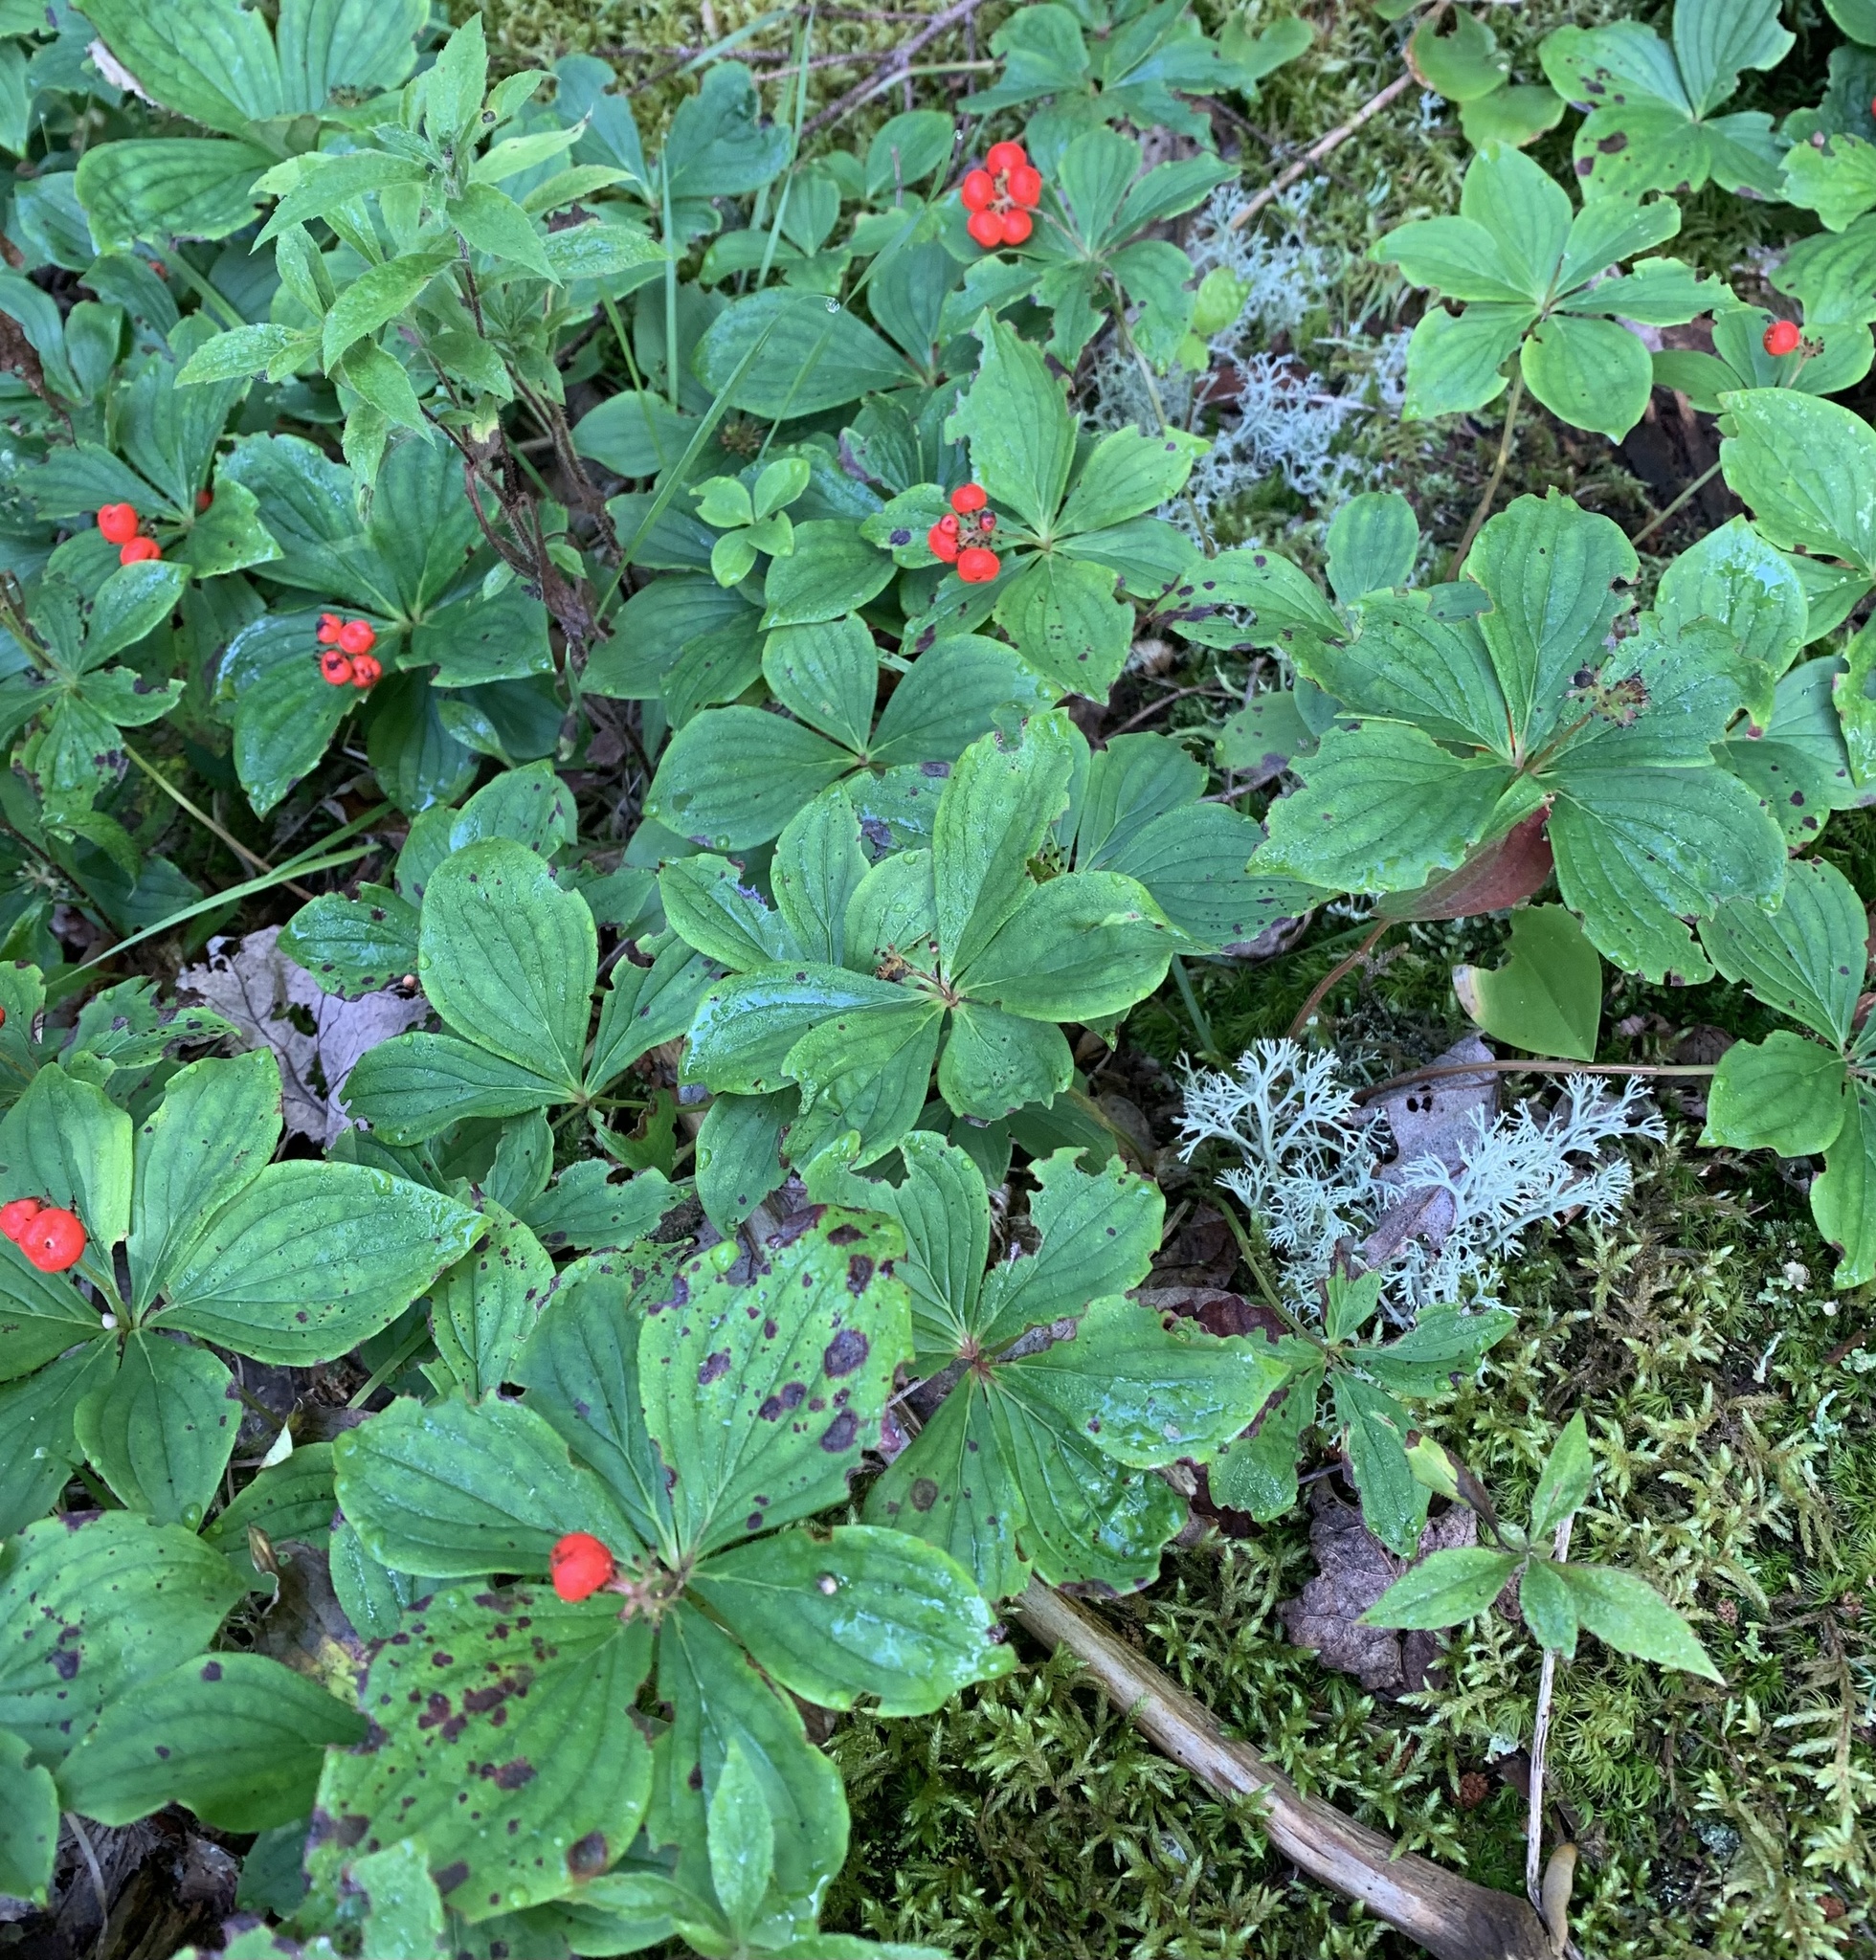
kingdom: Plantae
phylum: Tracheophyta
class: Magnoliopsida
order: Cornales
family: Cornaceae
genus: Cornus
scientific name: Cornus canadensis
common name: Creeping dogwood
